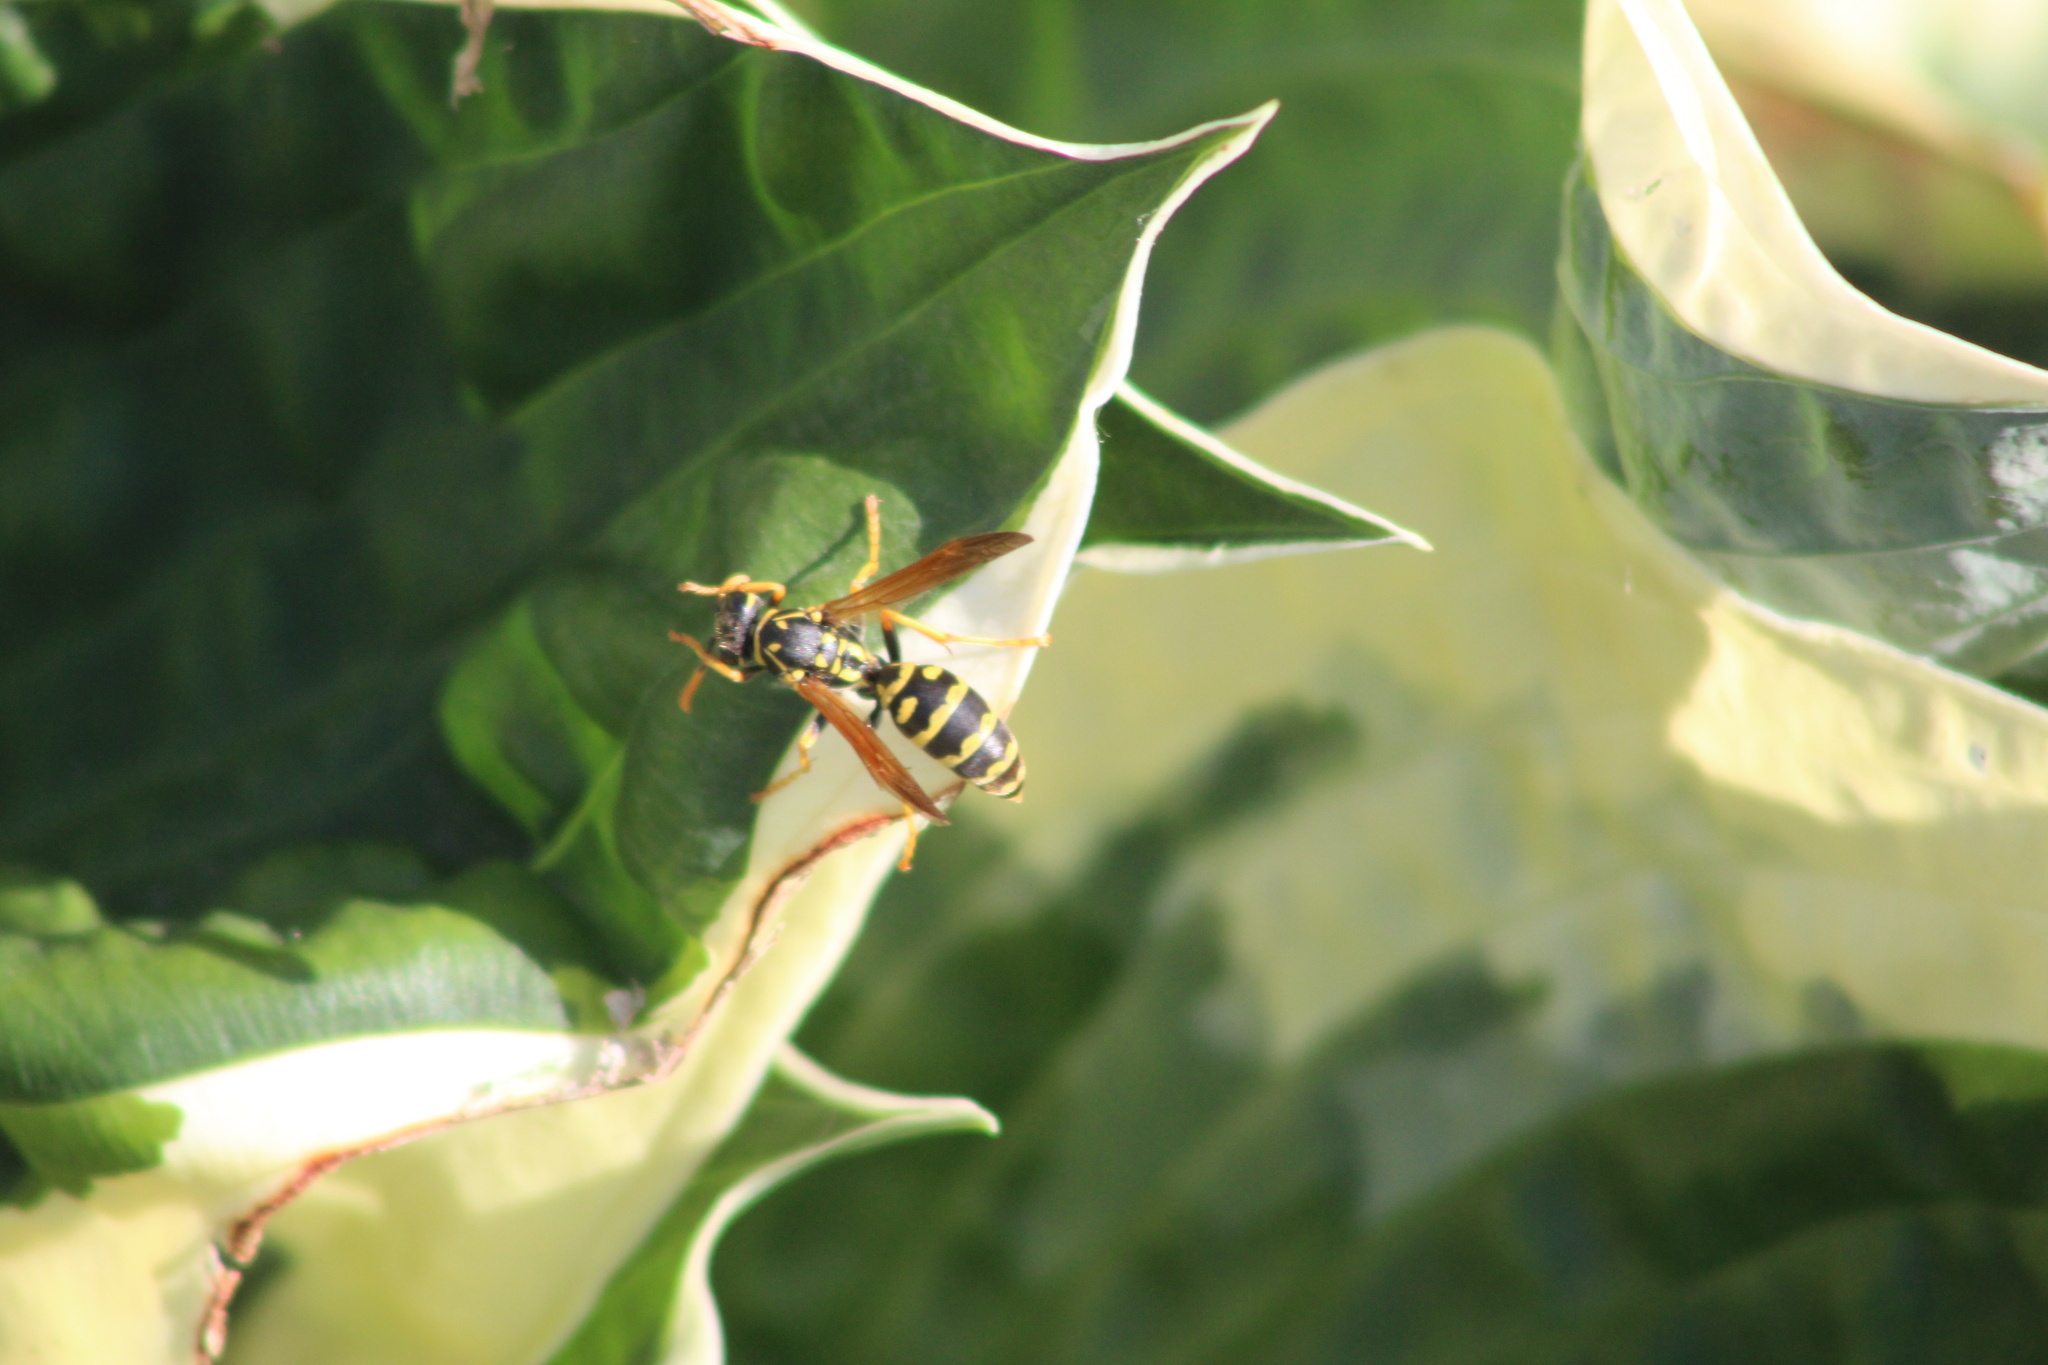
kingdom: Animalia
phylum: Arthropoda
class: Insecta
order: Hymenoptera
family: Eumenidae
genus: Polistes
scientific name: Polistes dominula
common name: Paper wasp
